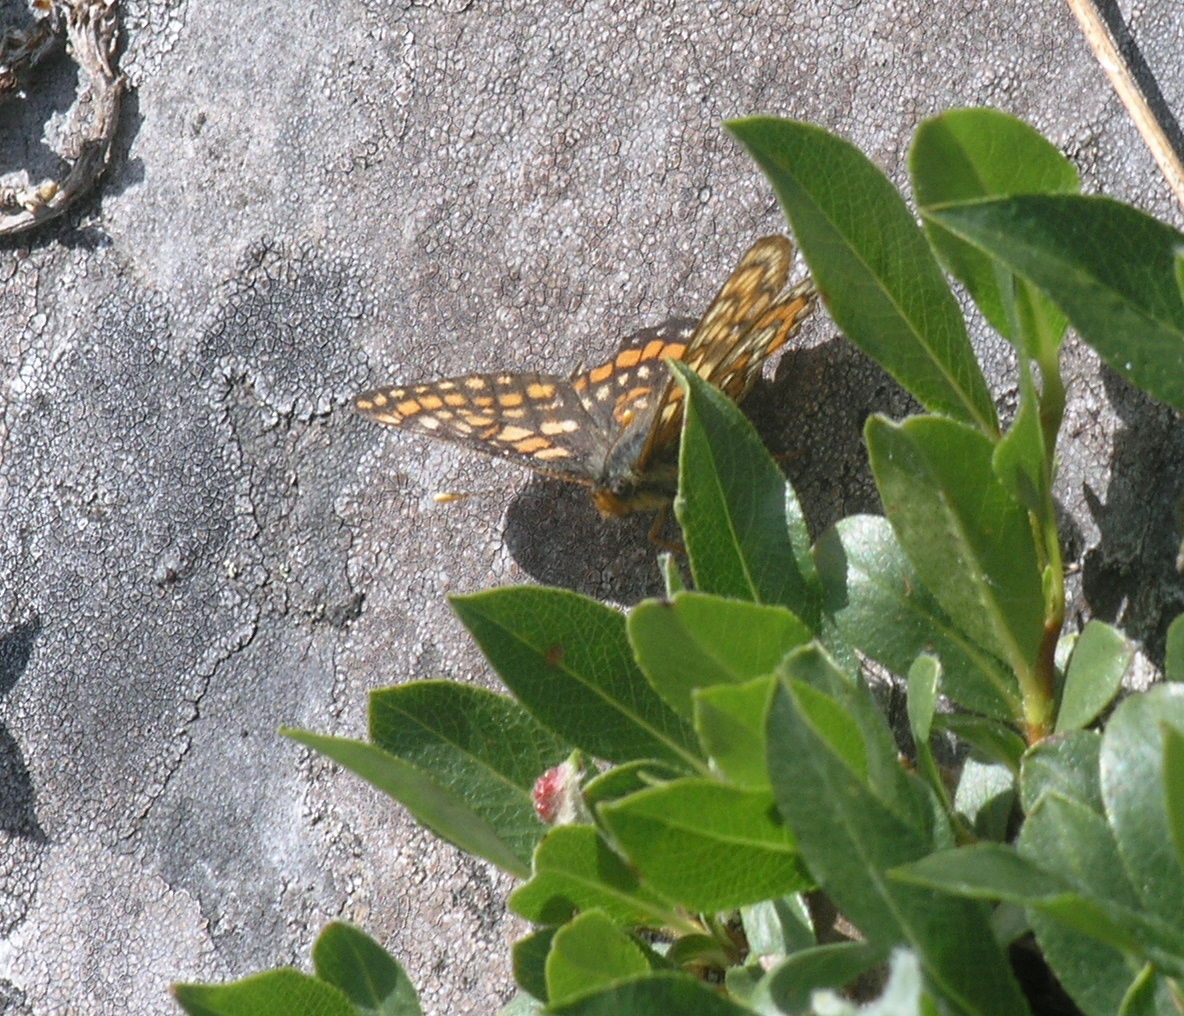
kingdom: Animalia
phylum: Arthropoda
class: Insecta
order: Lepidoptera
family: Nymphalidae
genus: Hypodryas
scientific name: Hypodryas intermedia
